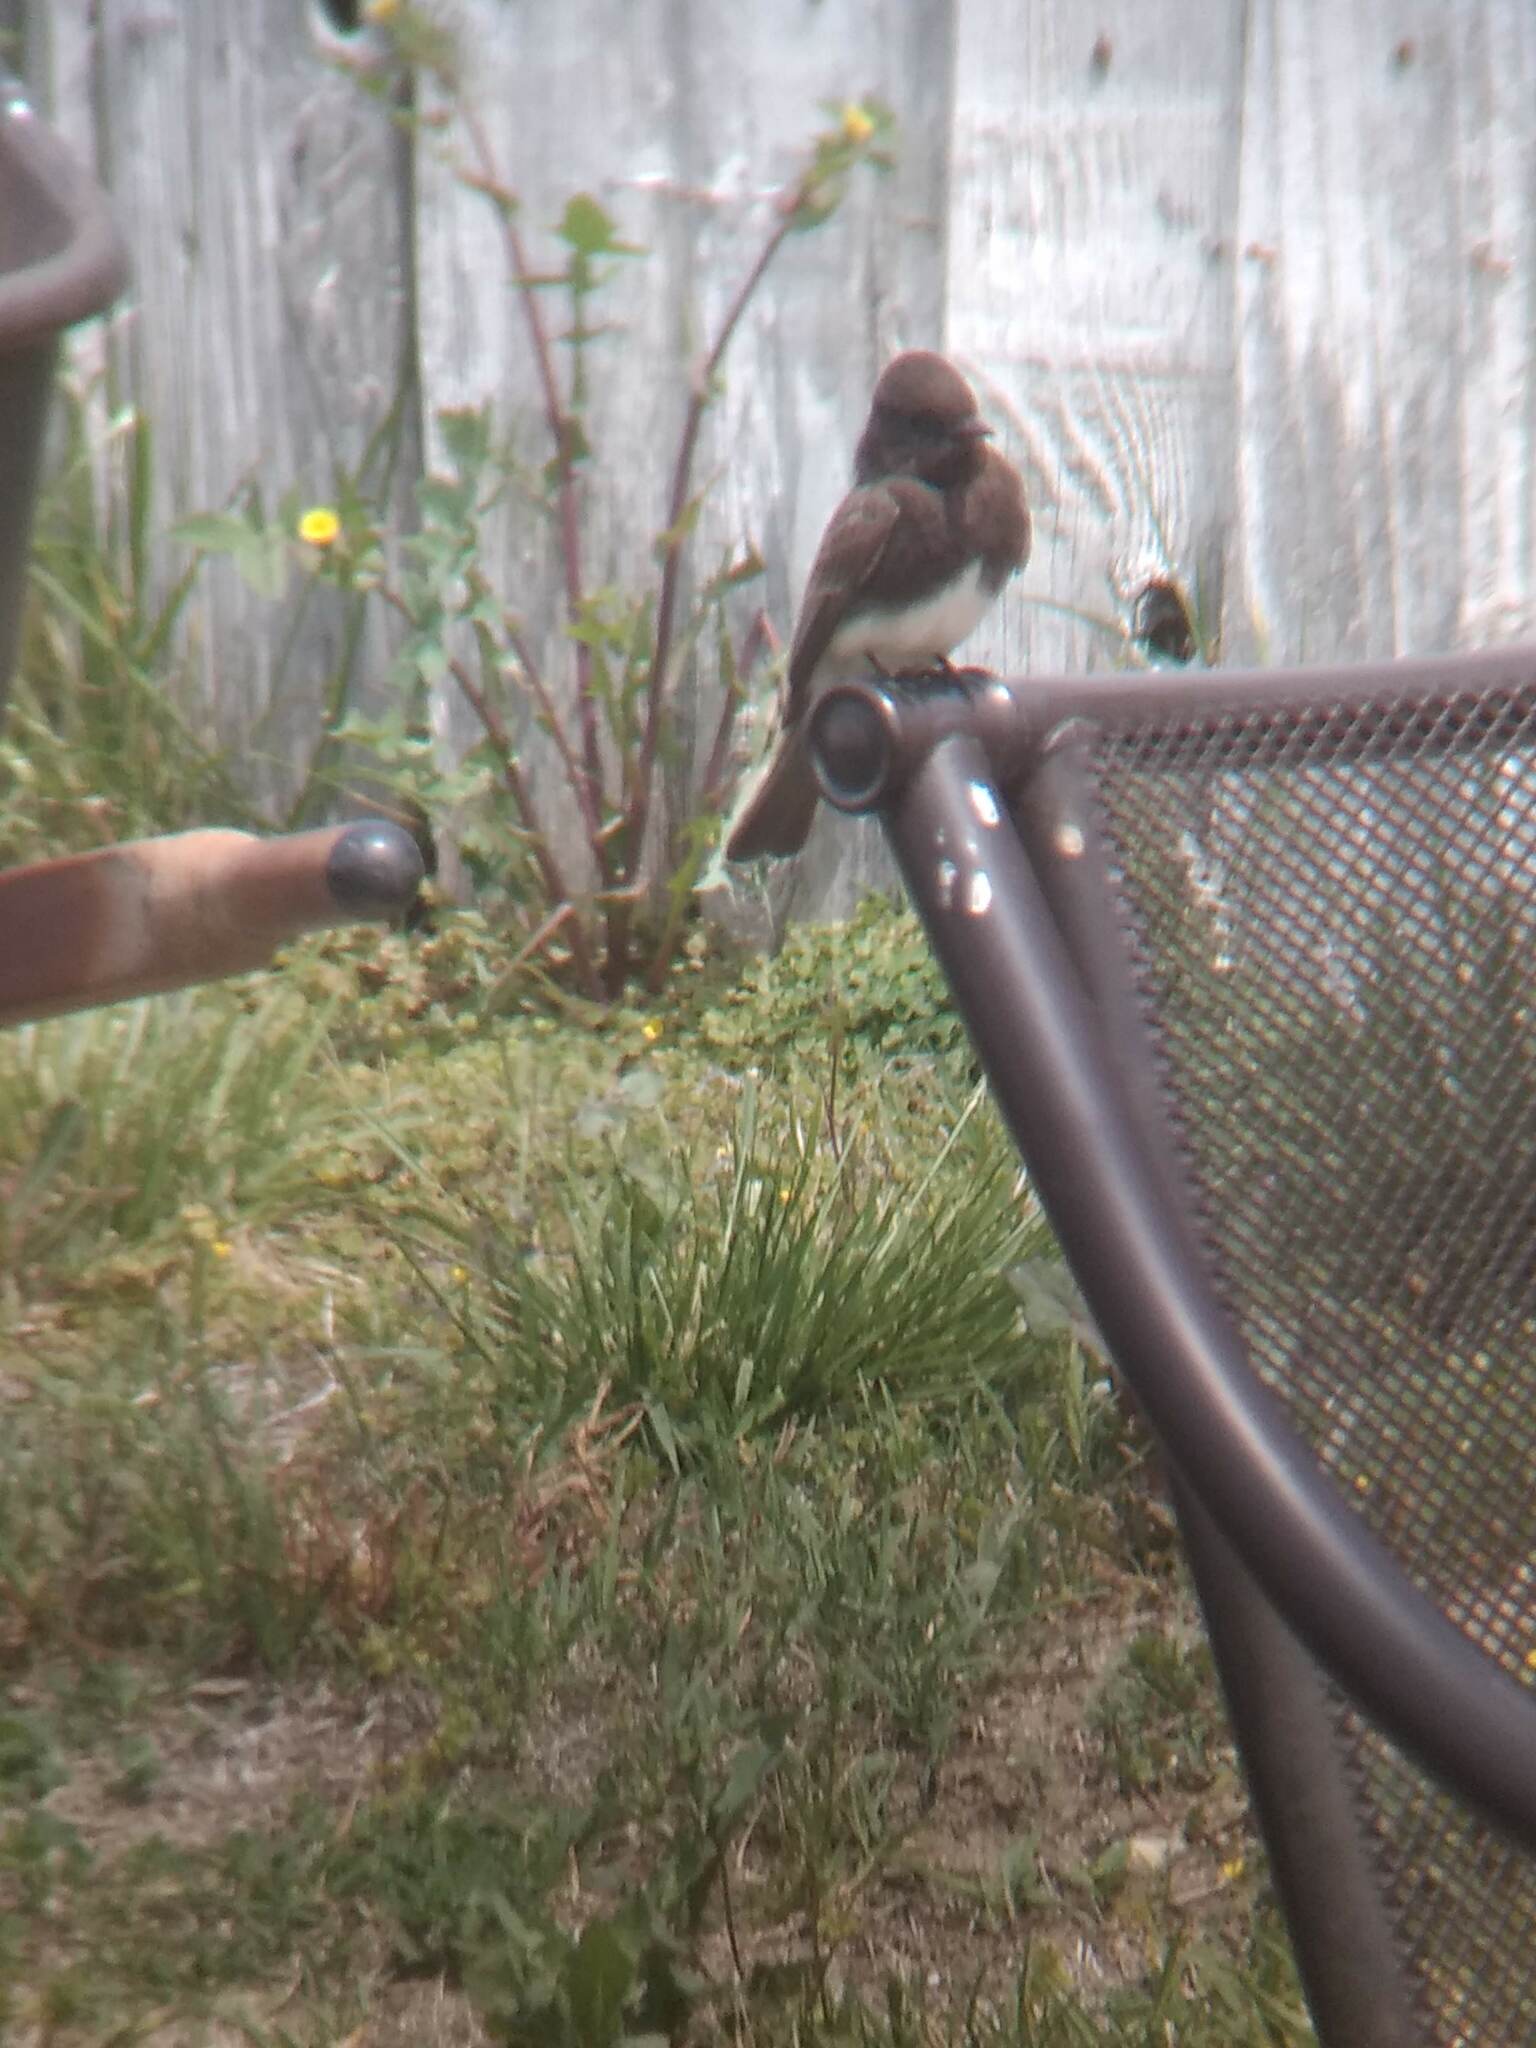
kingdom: Animalia
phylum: Chordata
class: Aves
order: Passeriformes
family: Tyrannidae
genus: Sayornis
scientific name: Sayornis nigricans
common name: Black phoebe
